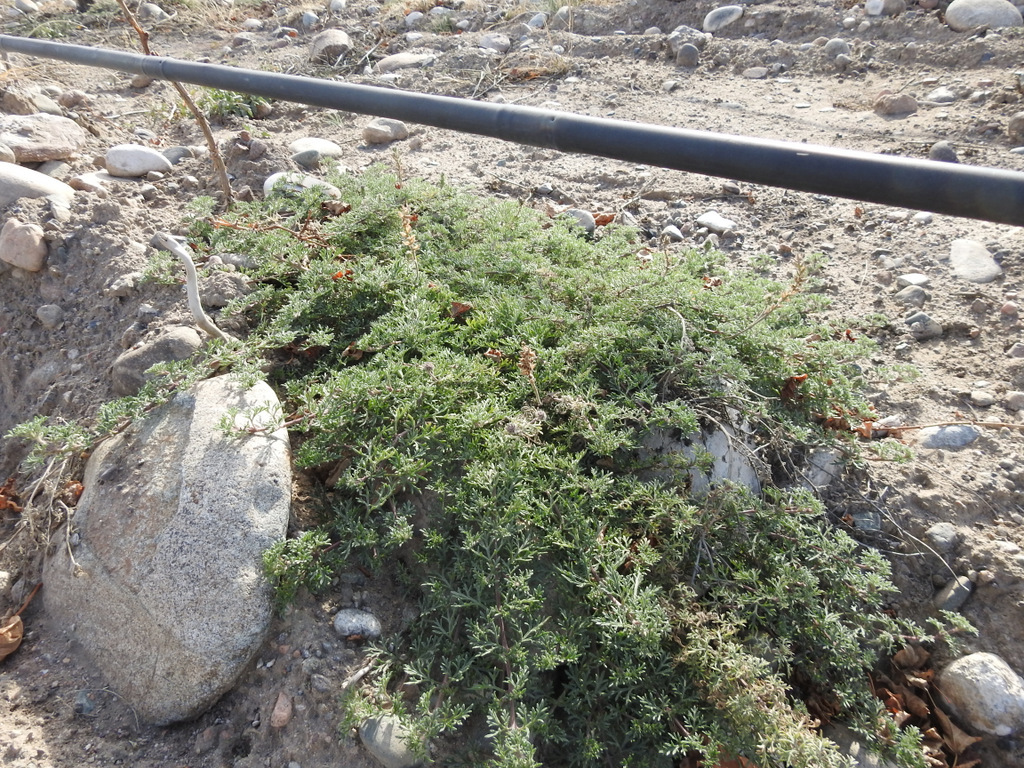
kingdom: Plantae
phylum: Tracheophyta
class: Magnoliopsida
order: Lamiales
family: Verbenaceae
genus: Verbena
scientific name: Verbena parodii
